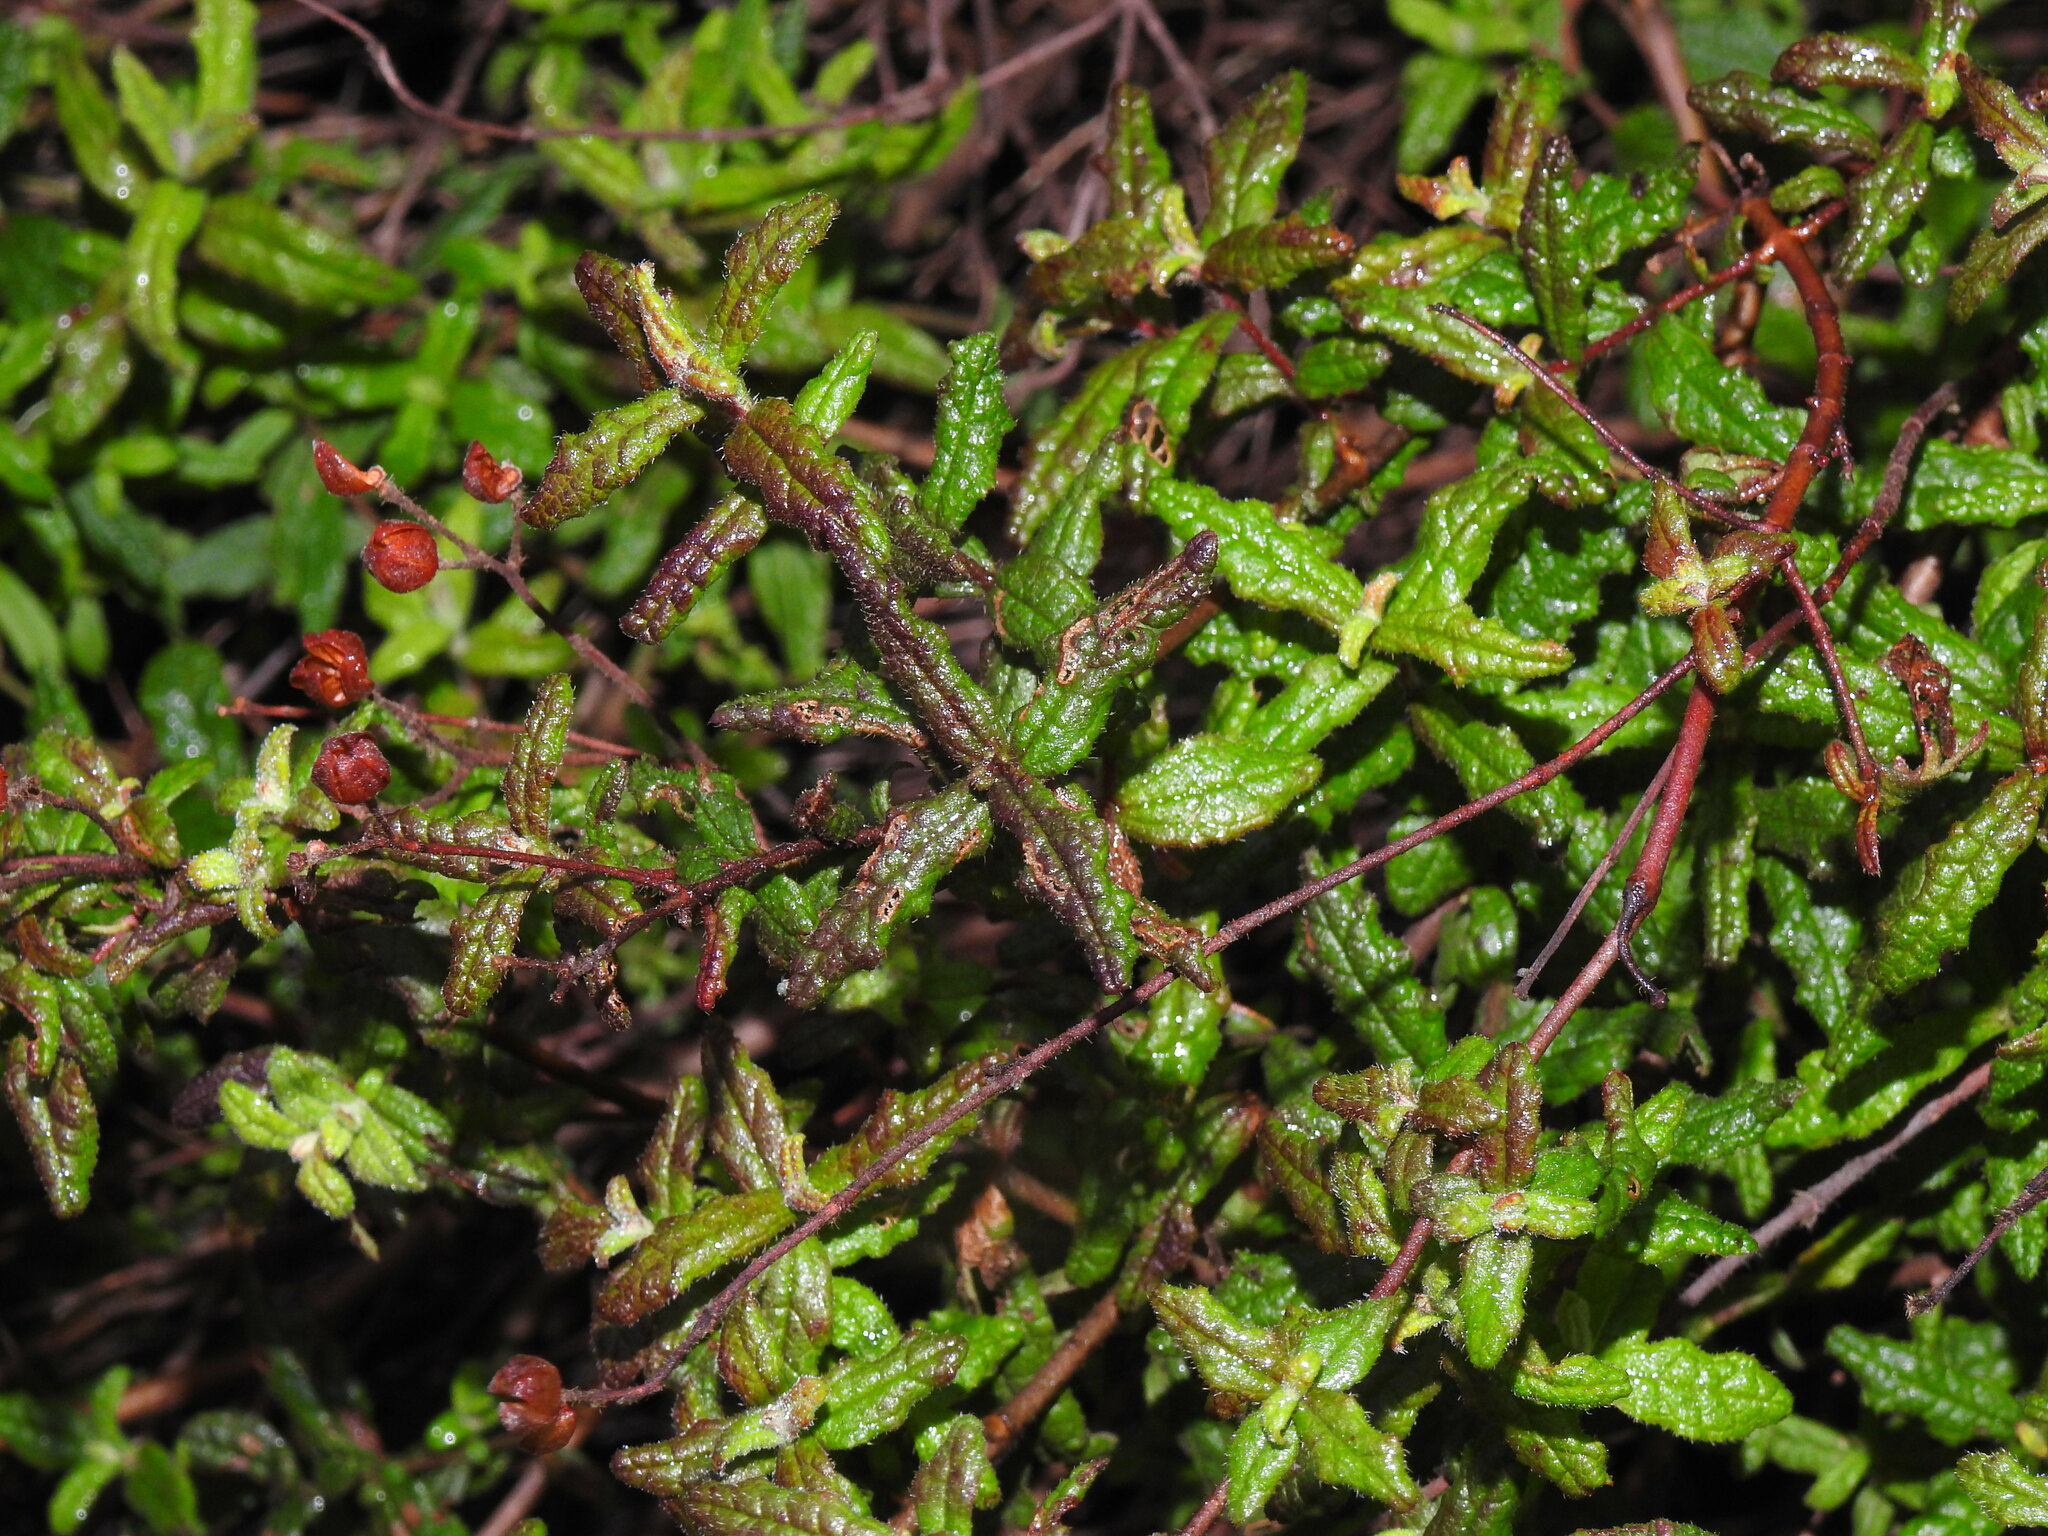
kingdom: Plantae
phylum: Tracheophyta
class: Magnoliopsida
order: Malvales
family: Cistaceae
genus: Cistus
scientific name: Cistus inflatus
